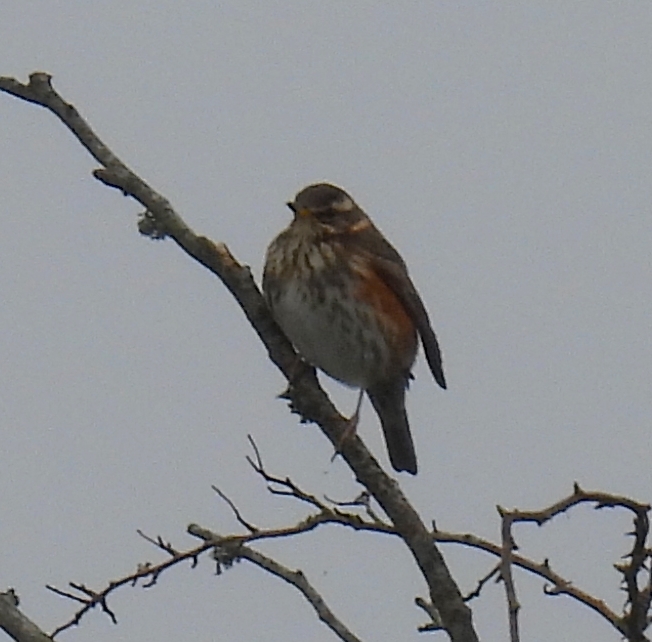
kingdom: Animalia
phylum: Chordata
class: Aves
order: Passeriformes
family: Turdidae
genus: Turdus
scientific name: Turdus iliacus
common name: Redwing
